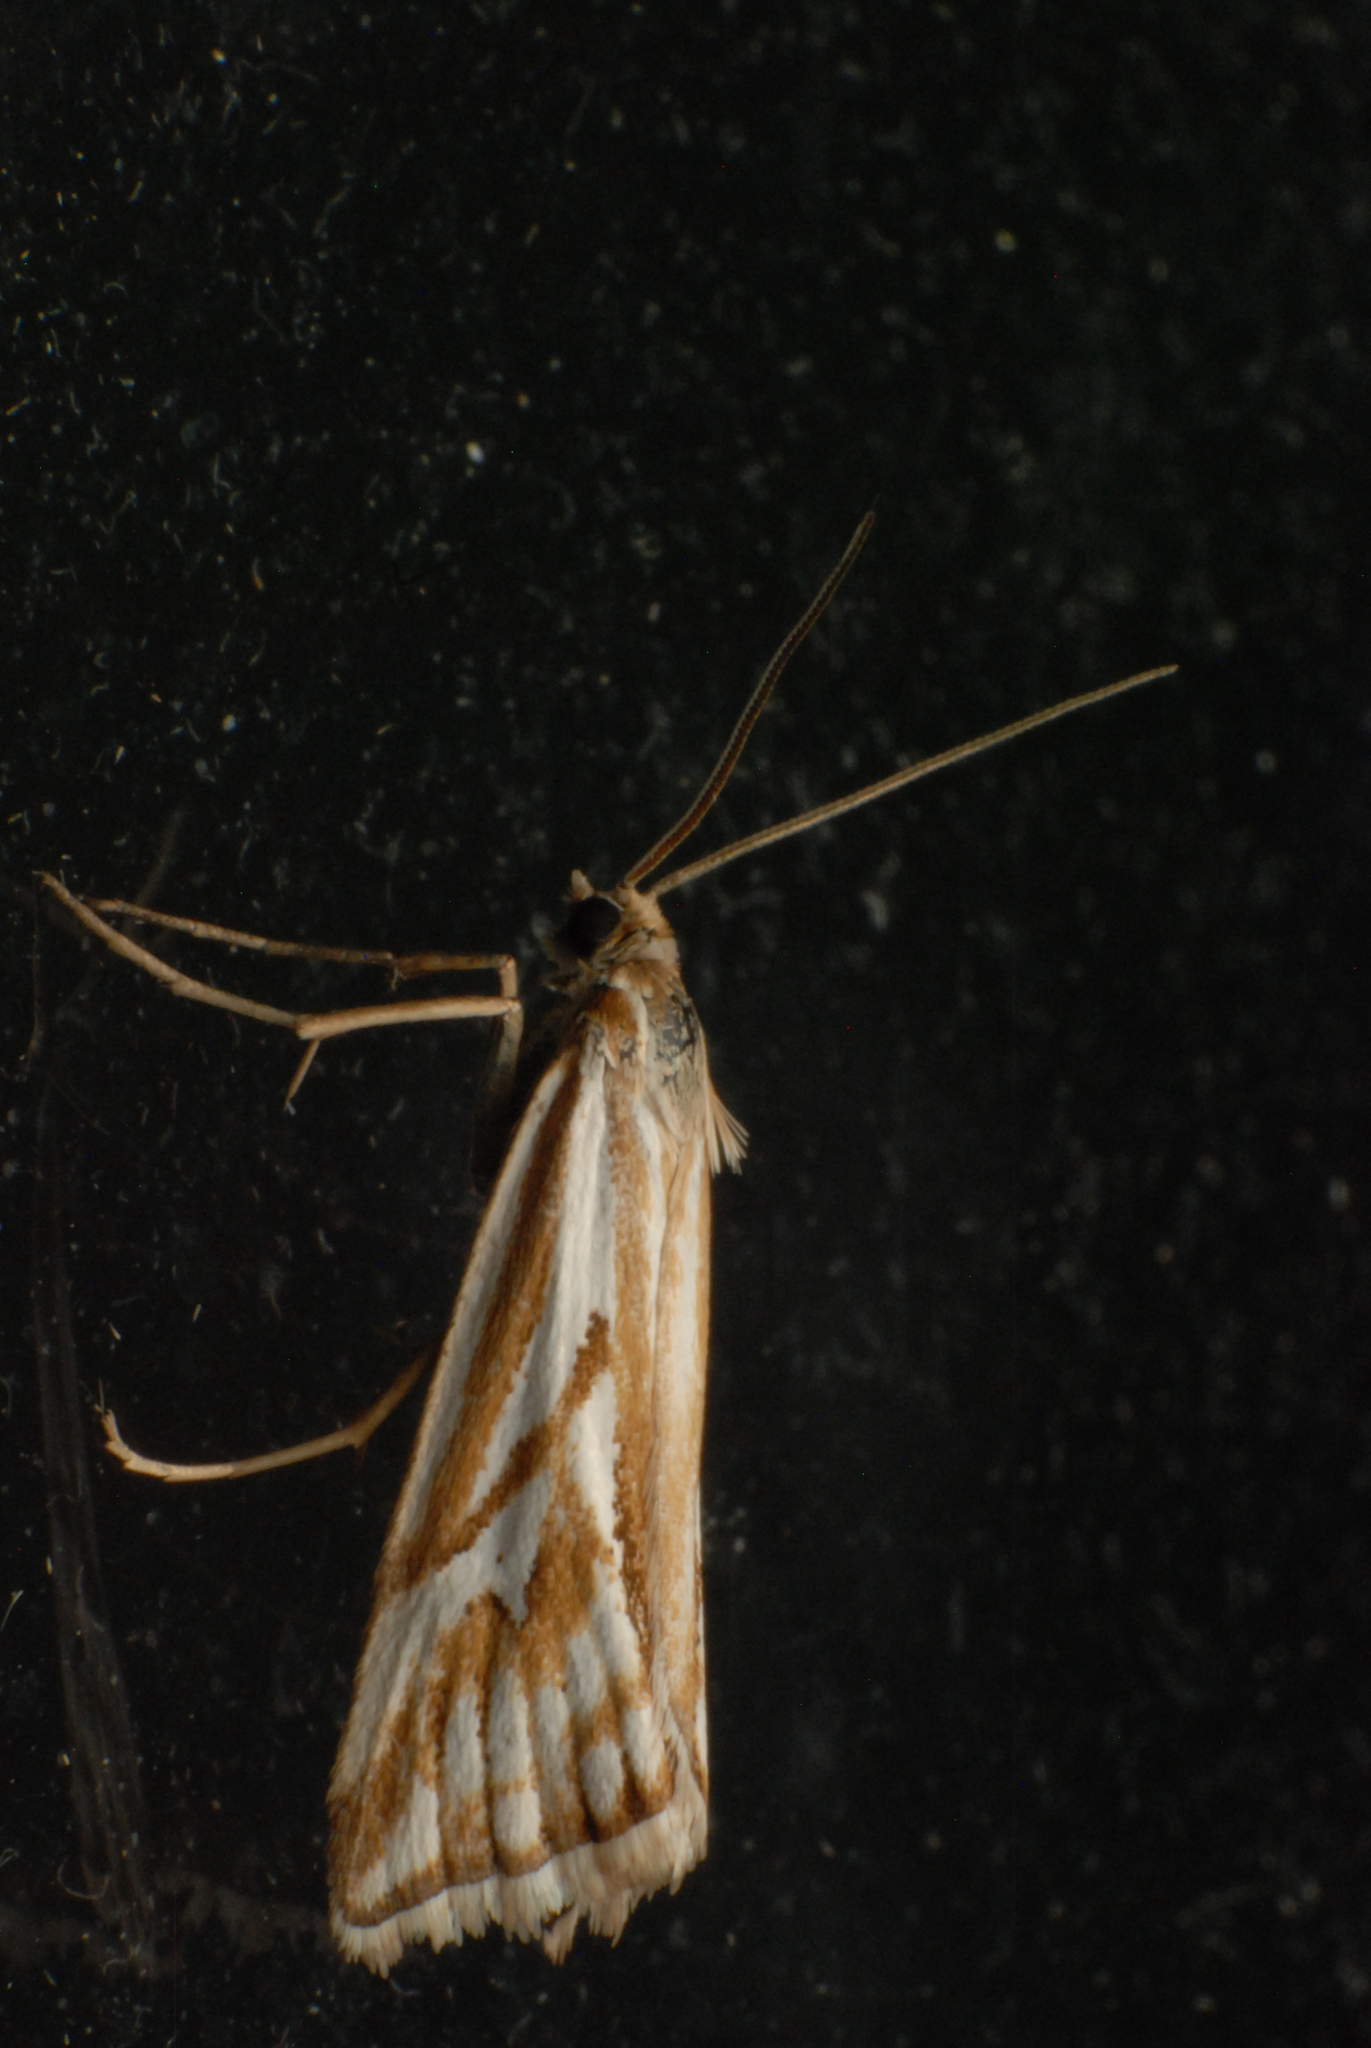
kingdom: Animalia
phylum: Arthropoda
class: Insecta
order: Lepidoptera
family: Crambidae
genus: Hednota
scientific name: Hednota pleniferellus
